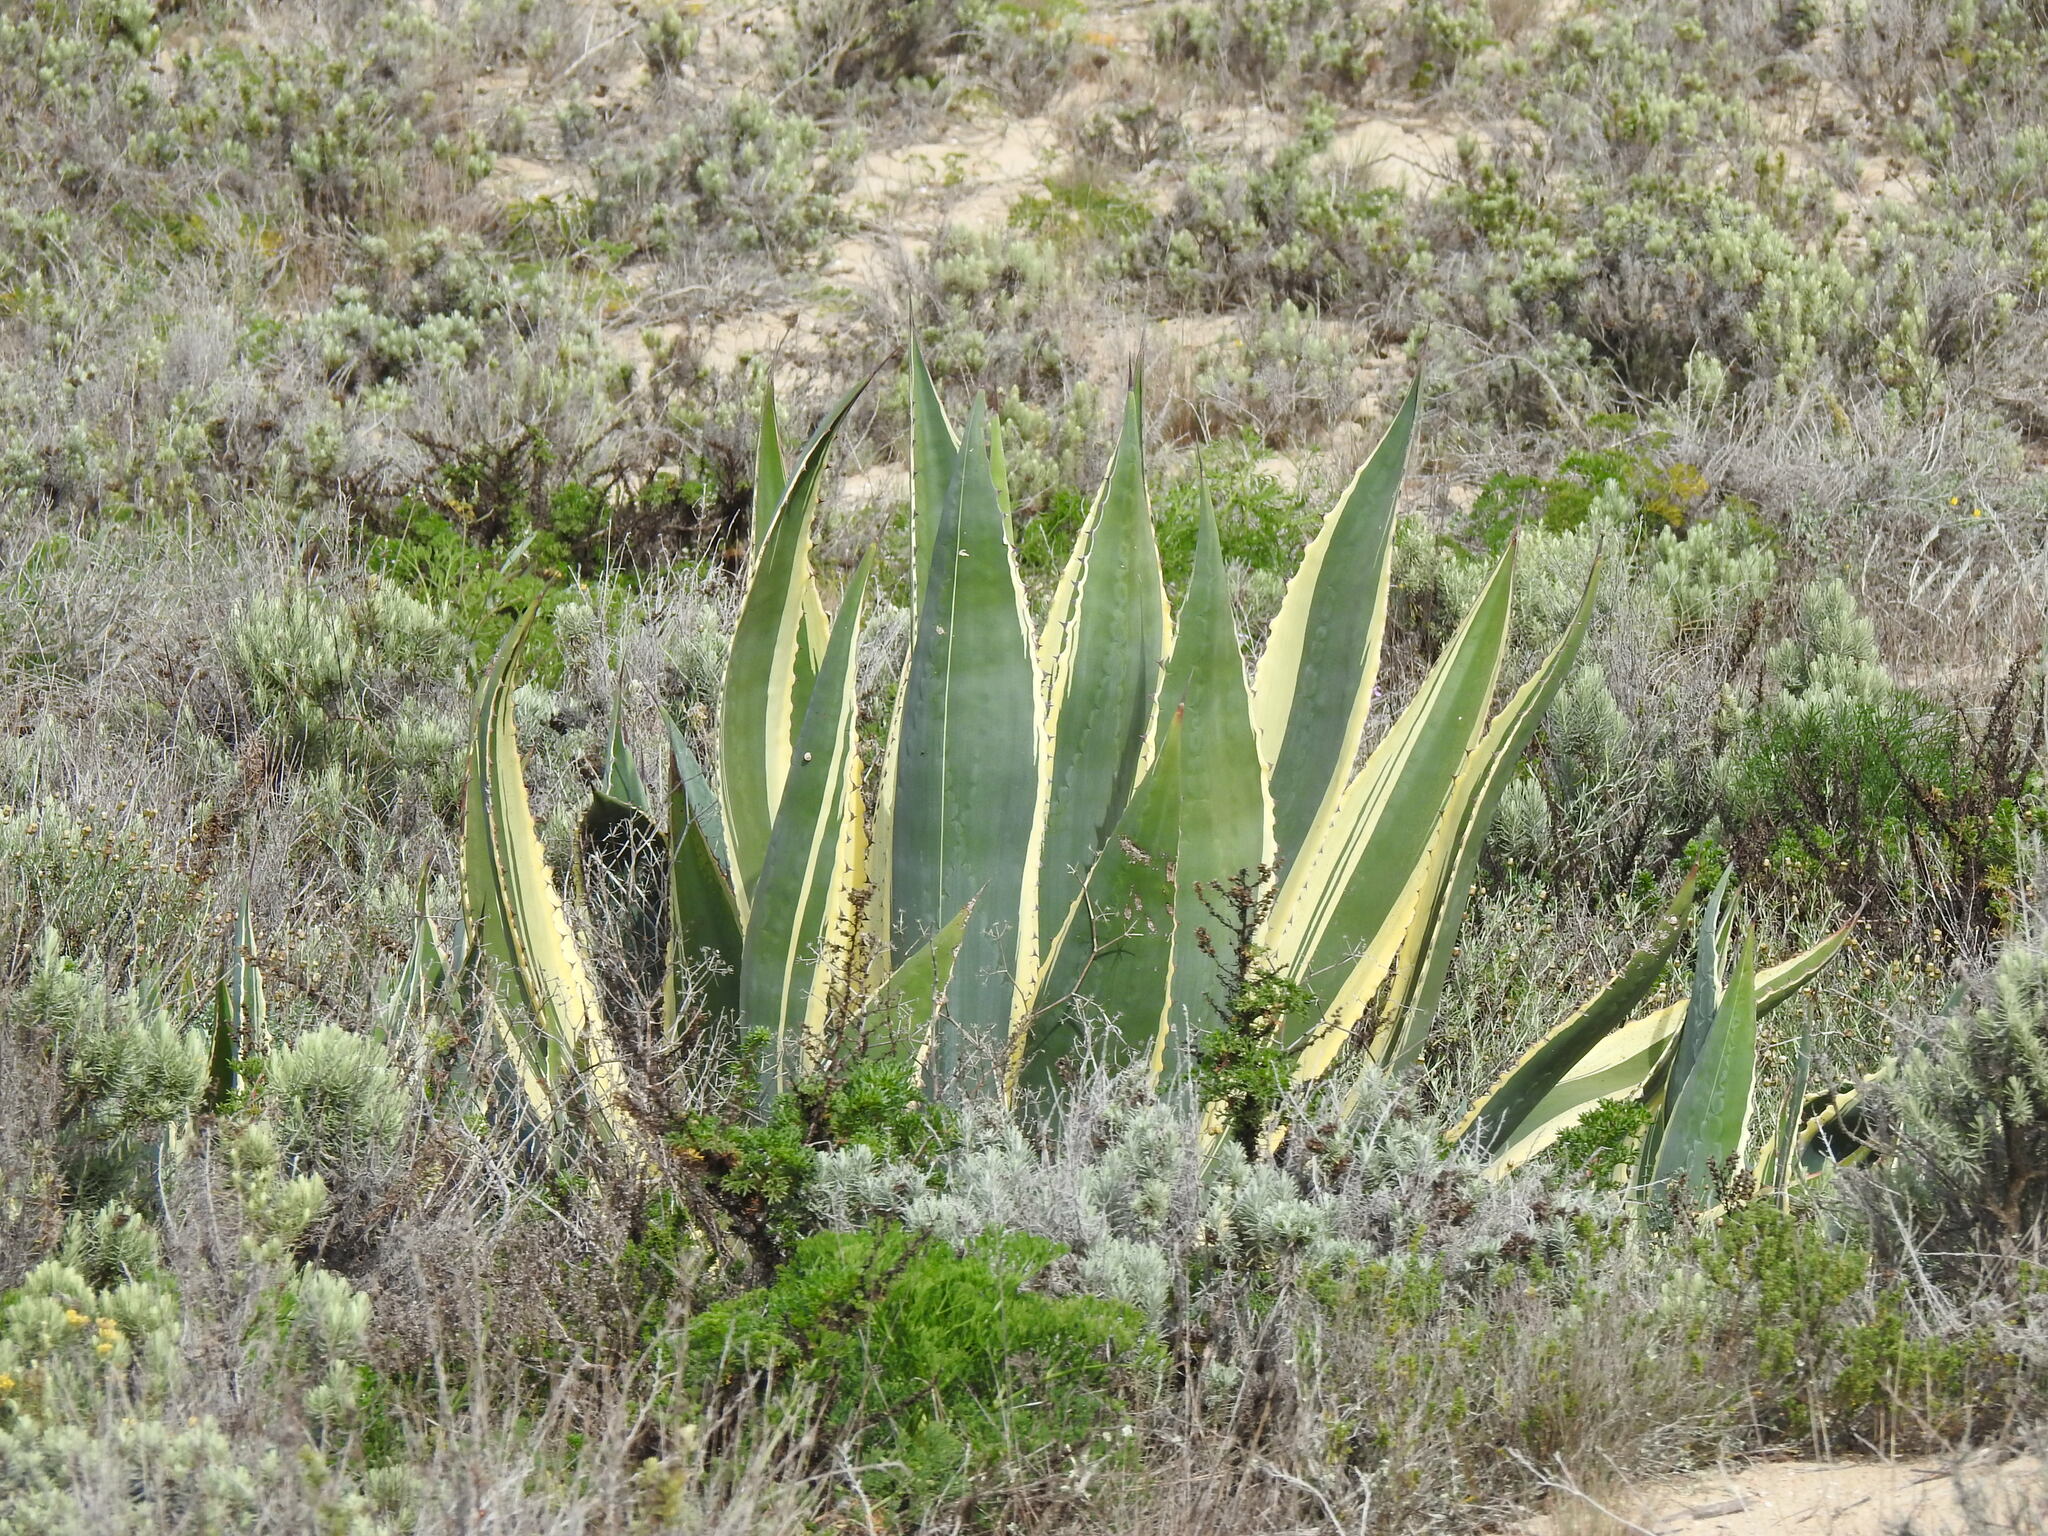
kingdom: Plantae
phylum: Tracheophyta
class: Liliopsida
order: Asparagales
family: Asparagaceae
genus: Agave
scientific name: Agave americana
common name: Centuryplant
